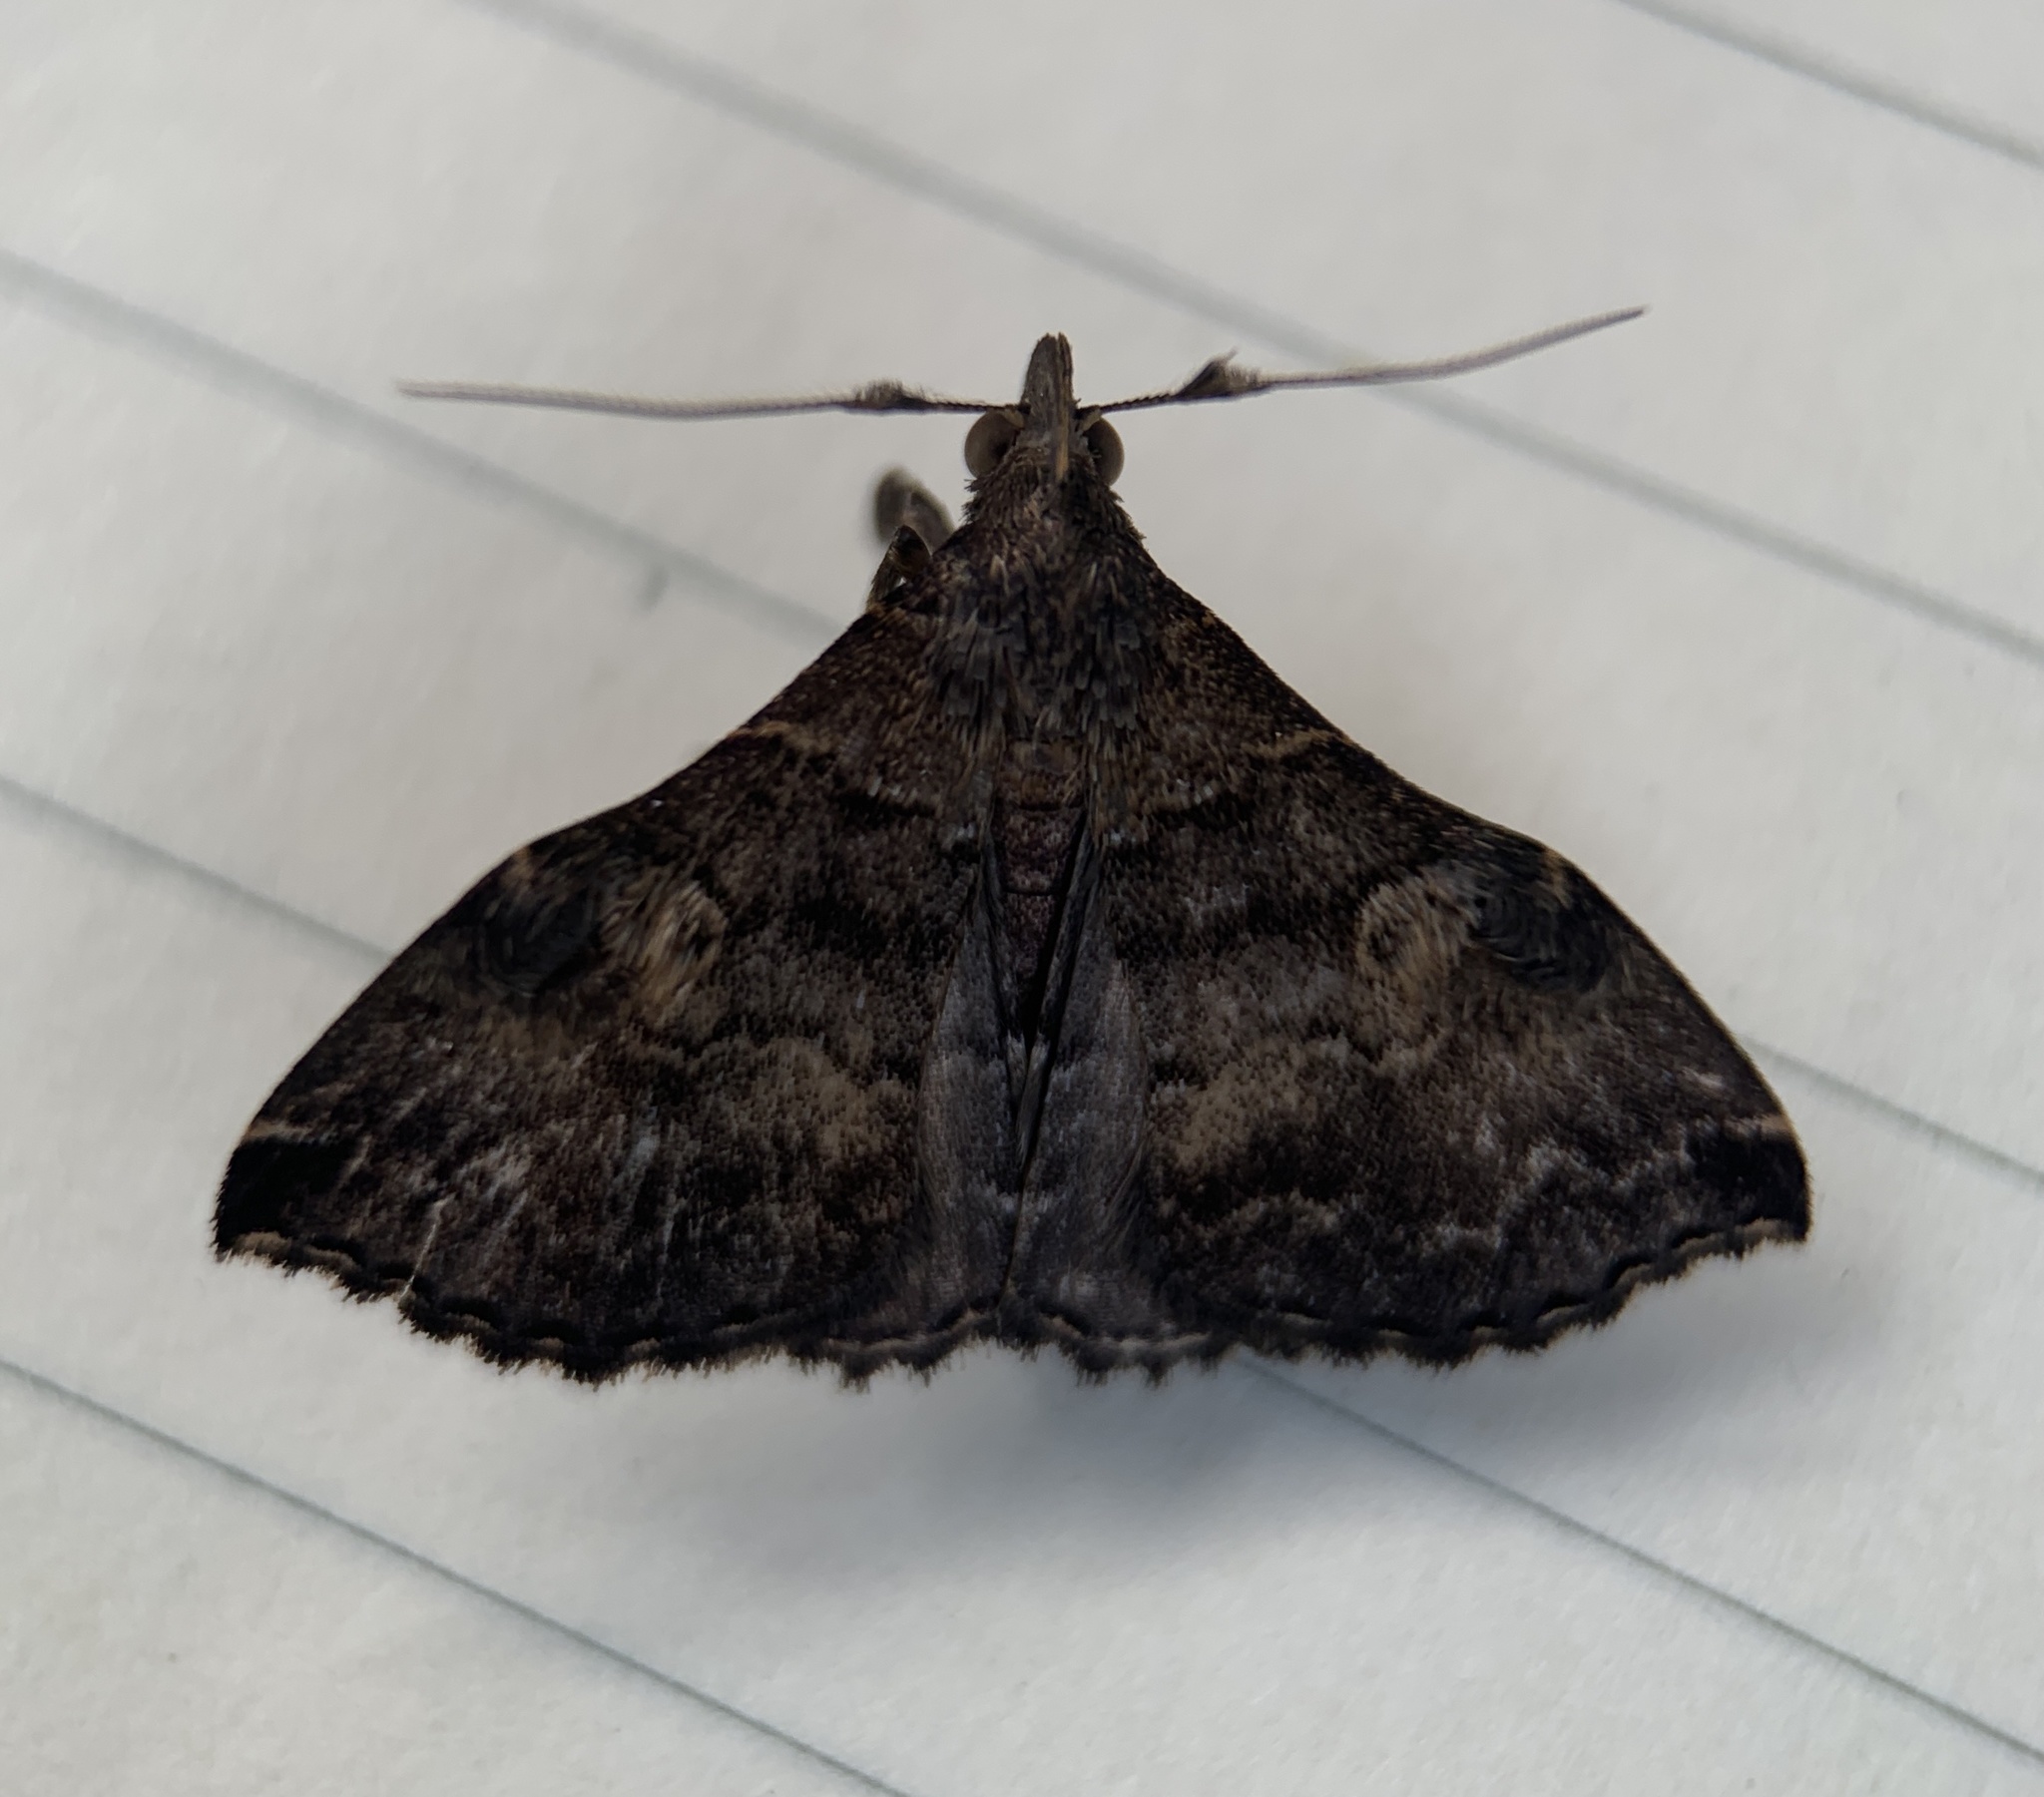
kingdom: Animalia
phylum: Arthropoda
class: Insecta
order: Lepidoptera
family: Erebidae
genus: Phlyctaina
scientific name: Phlyctaina irrigualis
